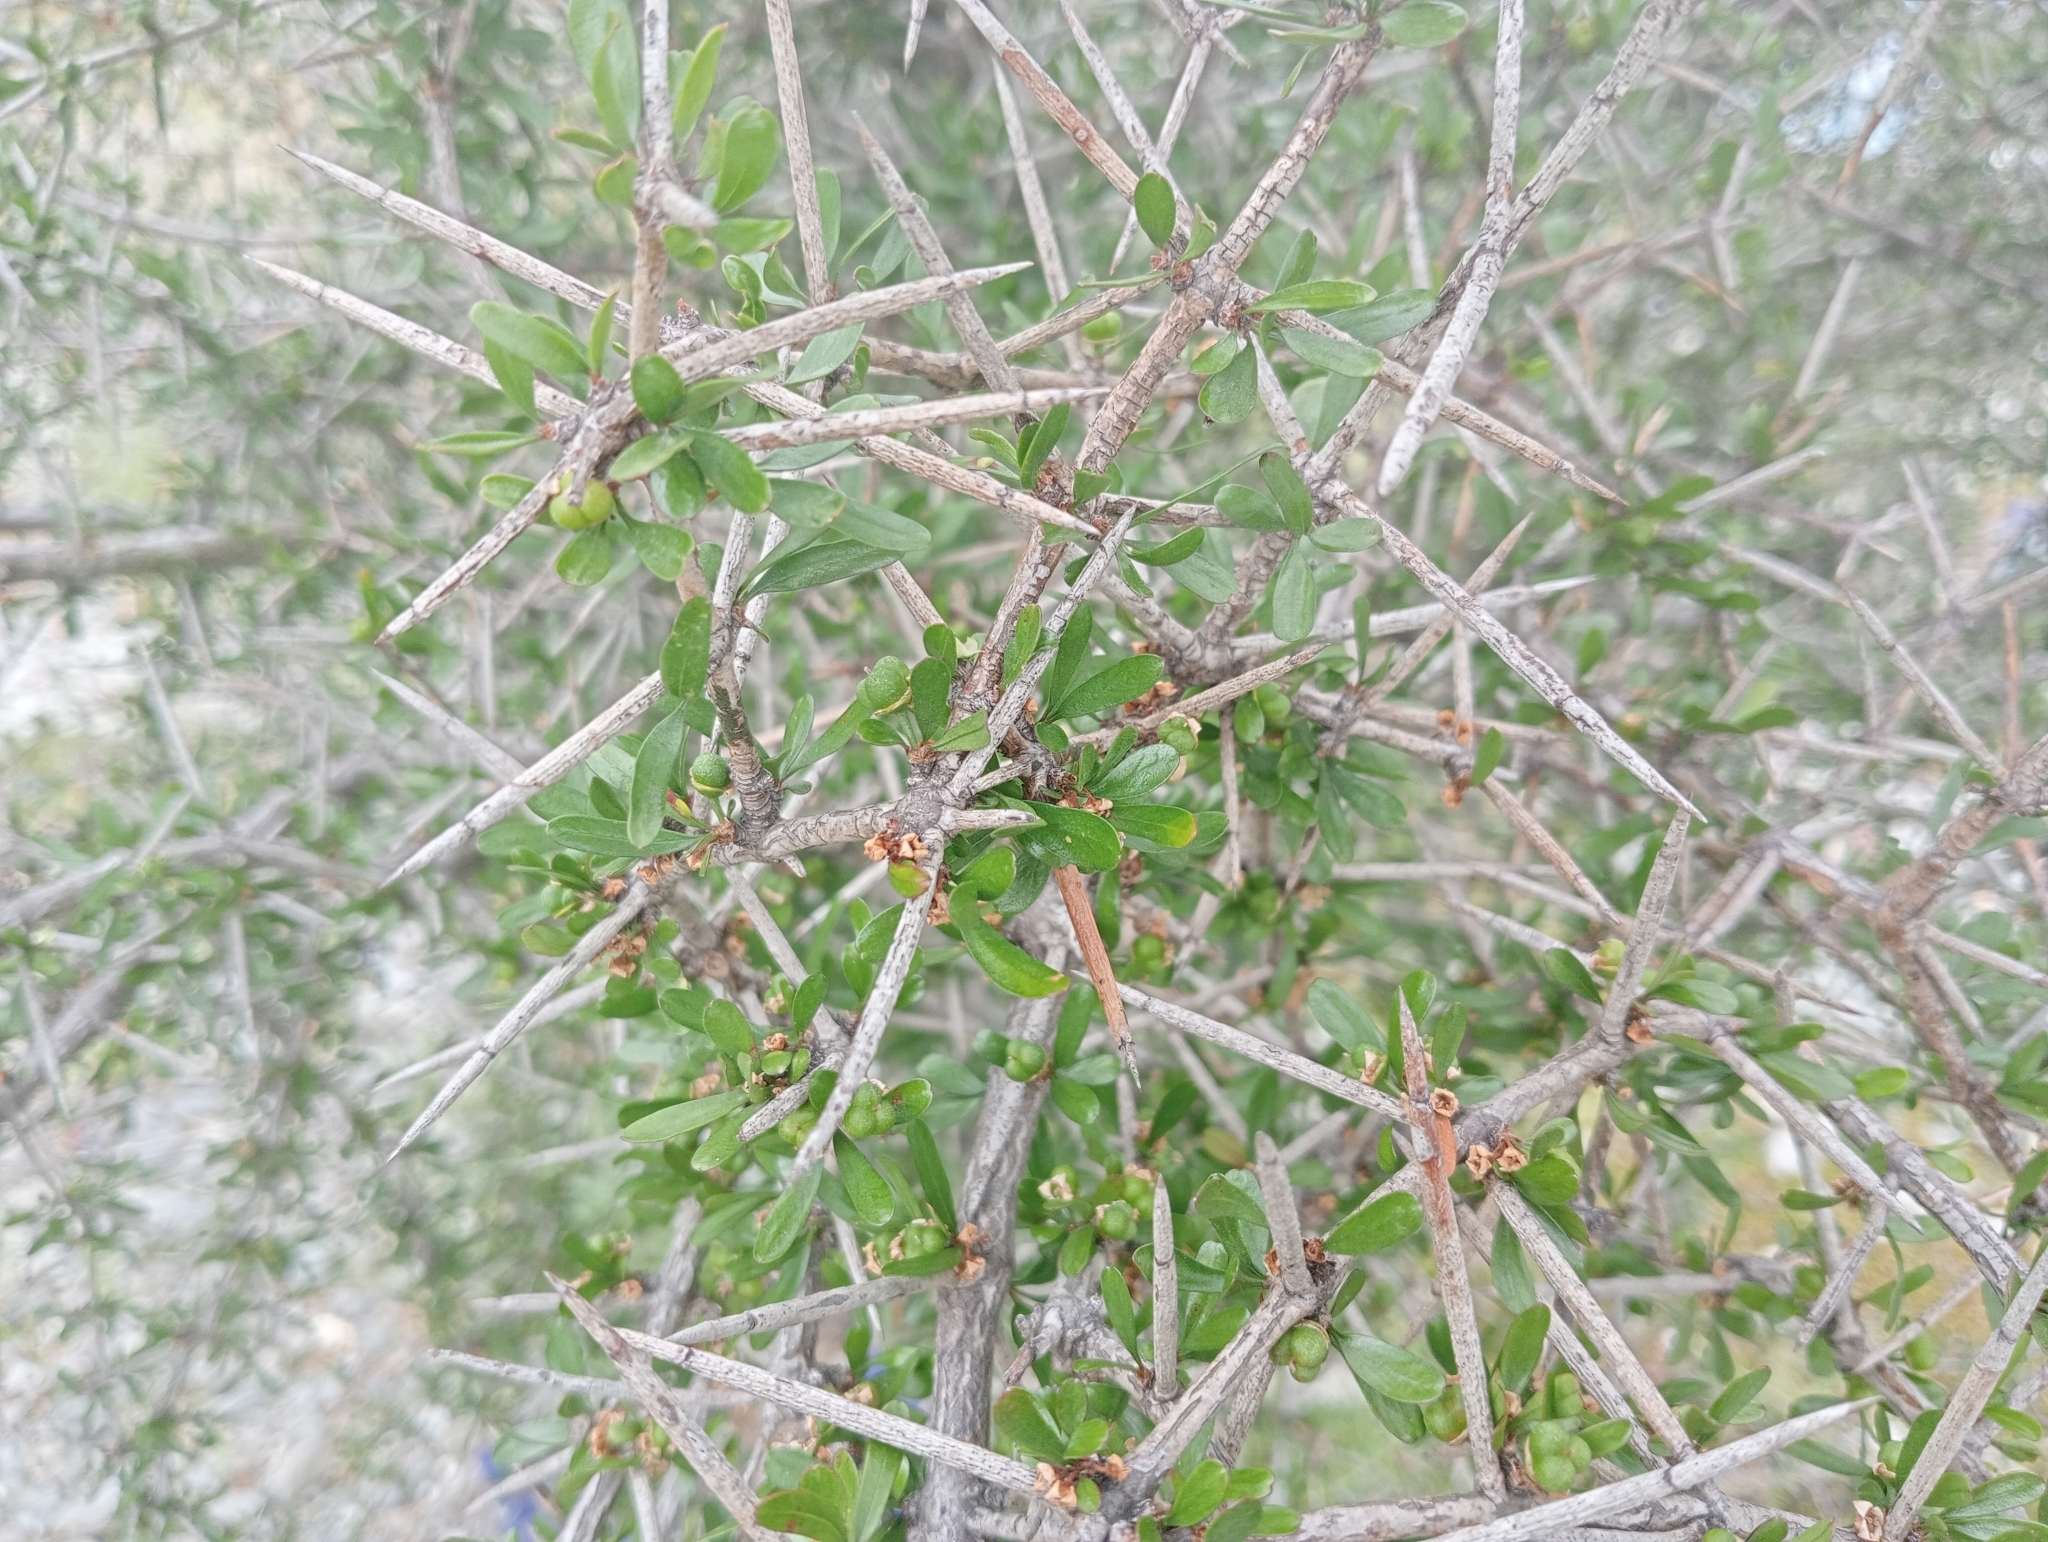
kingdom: Plantae
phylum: Tracheophyta
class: Magnoliopsida
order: Rosales
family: Rhamnaceae
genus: Discaria
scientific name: Discaria toumatou
